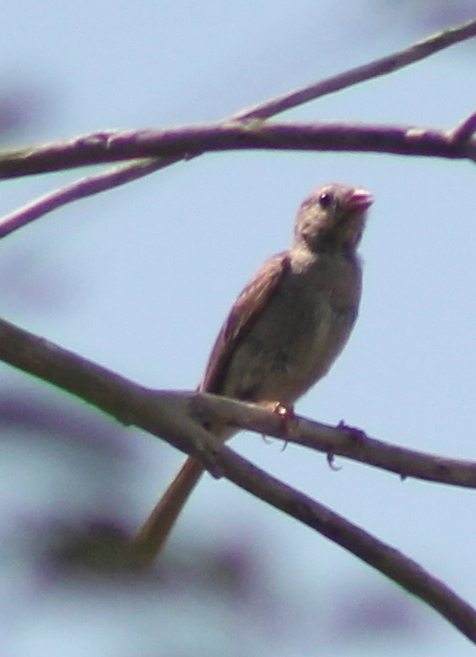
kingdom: Animalia
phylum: Chordata
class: Aves
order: Passeriformes
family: Passerellidae
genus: Spizella
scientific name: Spizella pusilla
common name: Field sparrow
